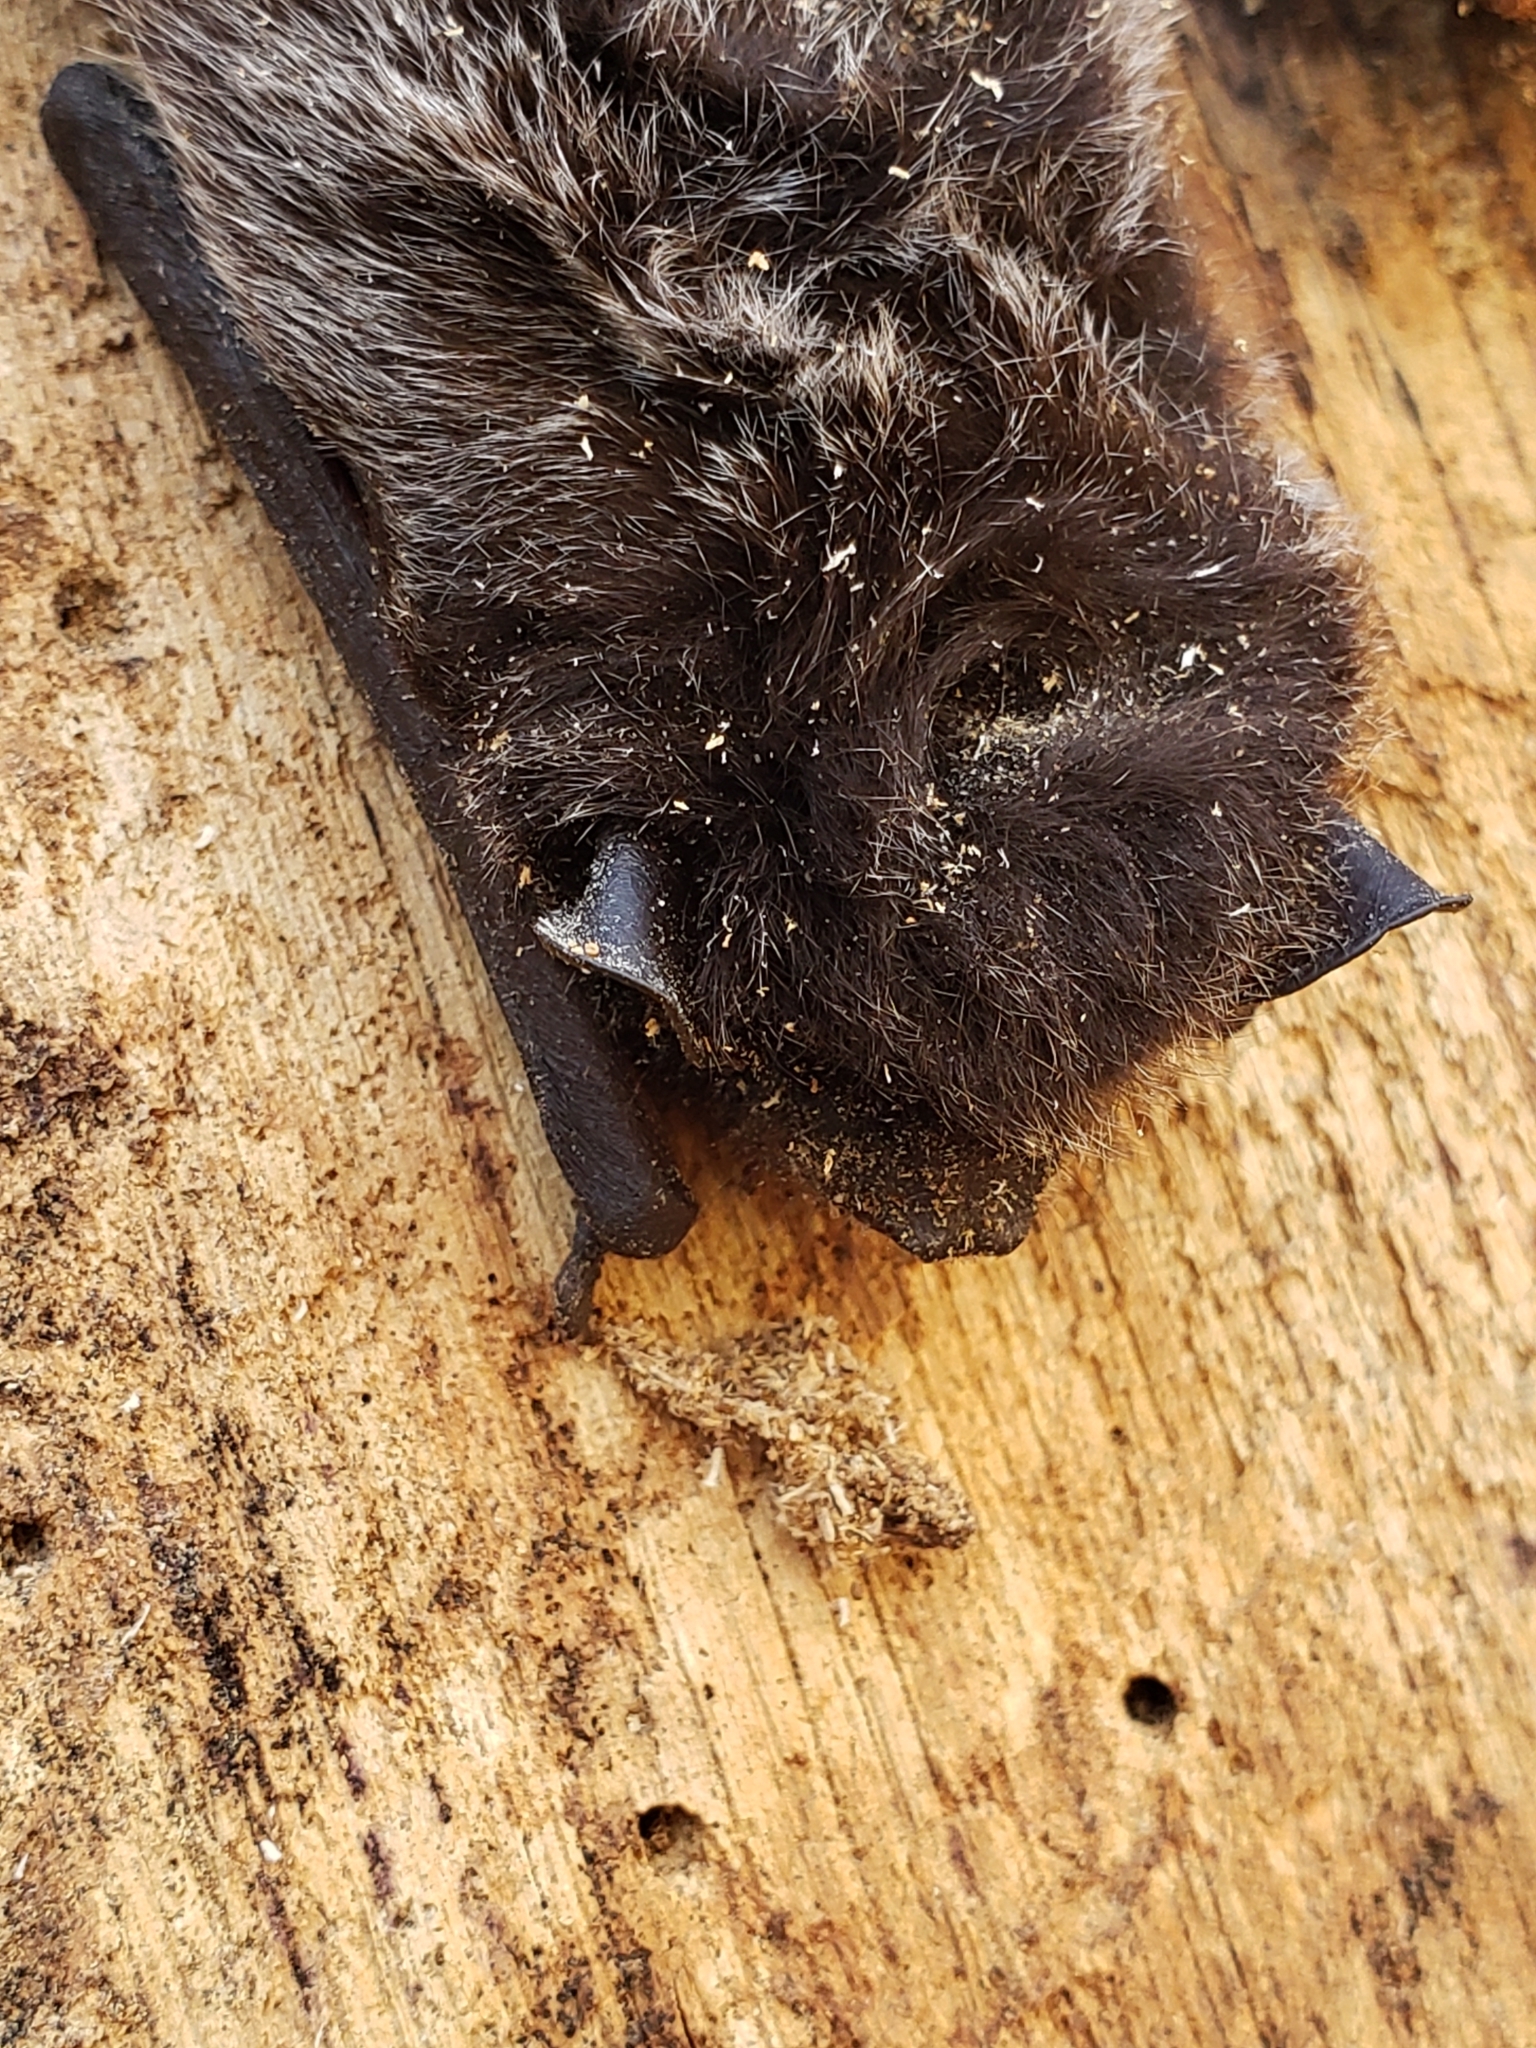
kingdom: Animalia
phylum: Chordata
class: Mammalia
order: Chiroptera
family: Vespertilionidae
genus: Lasionycteris
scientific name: Lasionycteris noctivagans
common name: Silver-haired bat
